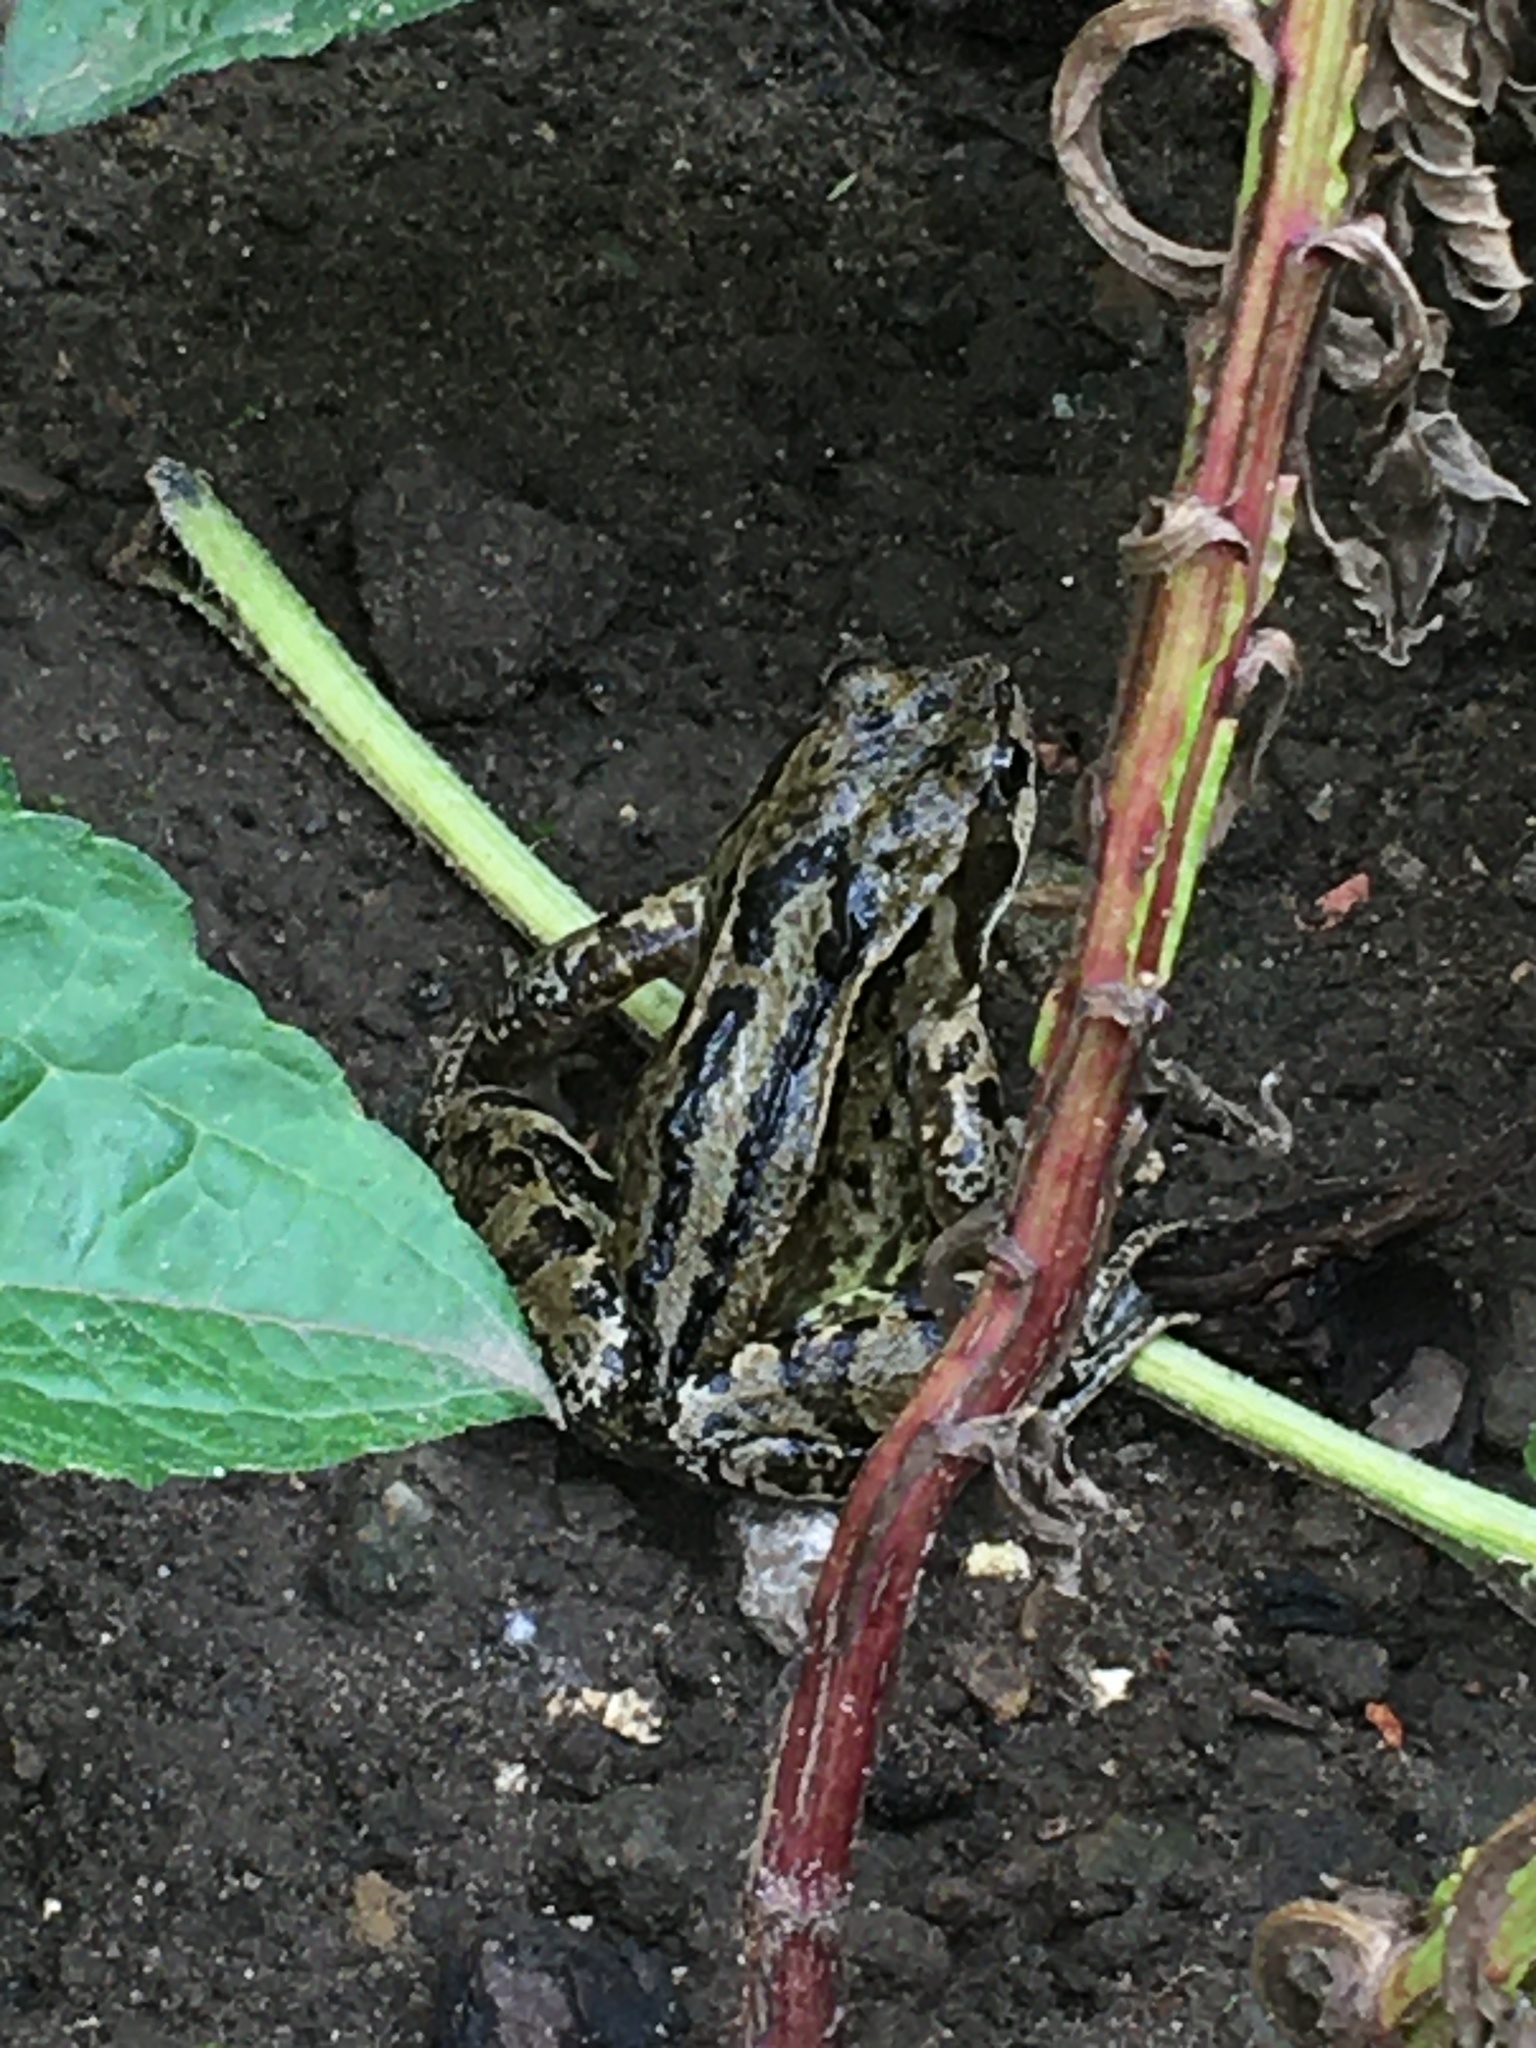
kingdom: Animalia
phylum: Chordata
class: Amphibia
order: Anura
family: Ranidae
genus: Rana
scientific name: Rana temporaria
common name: Common frog
